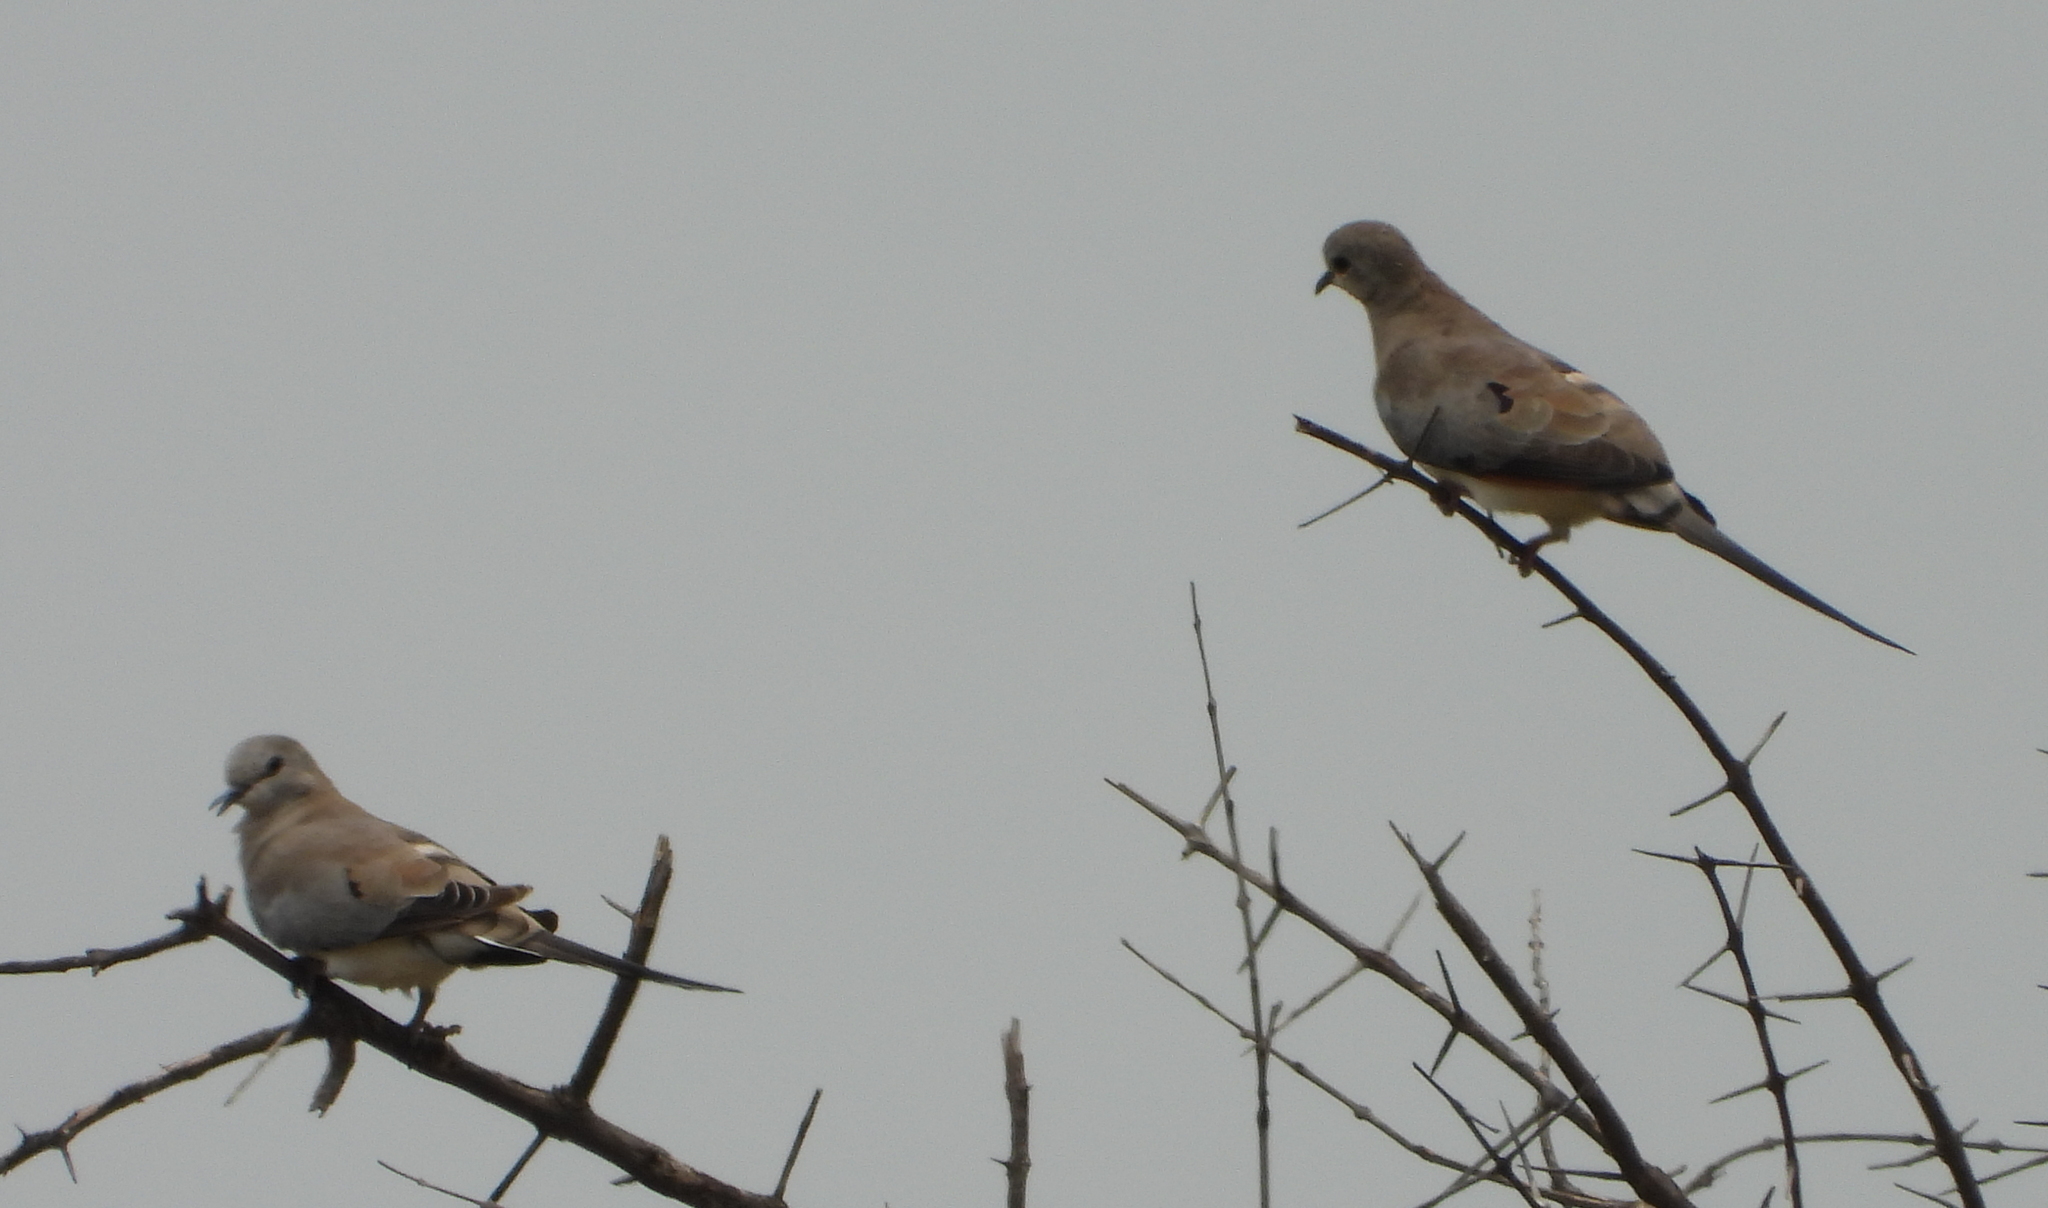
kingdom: Animalia
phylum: Chordata
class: Aves
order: Columbiformes
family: Columbidae
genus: Oena
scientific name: Oena capensis
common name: Namaqua dove
